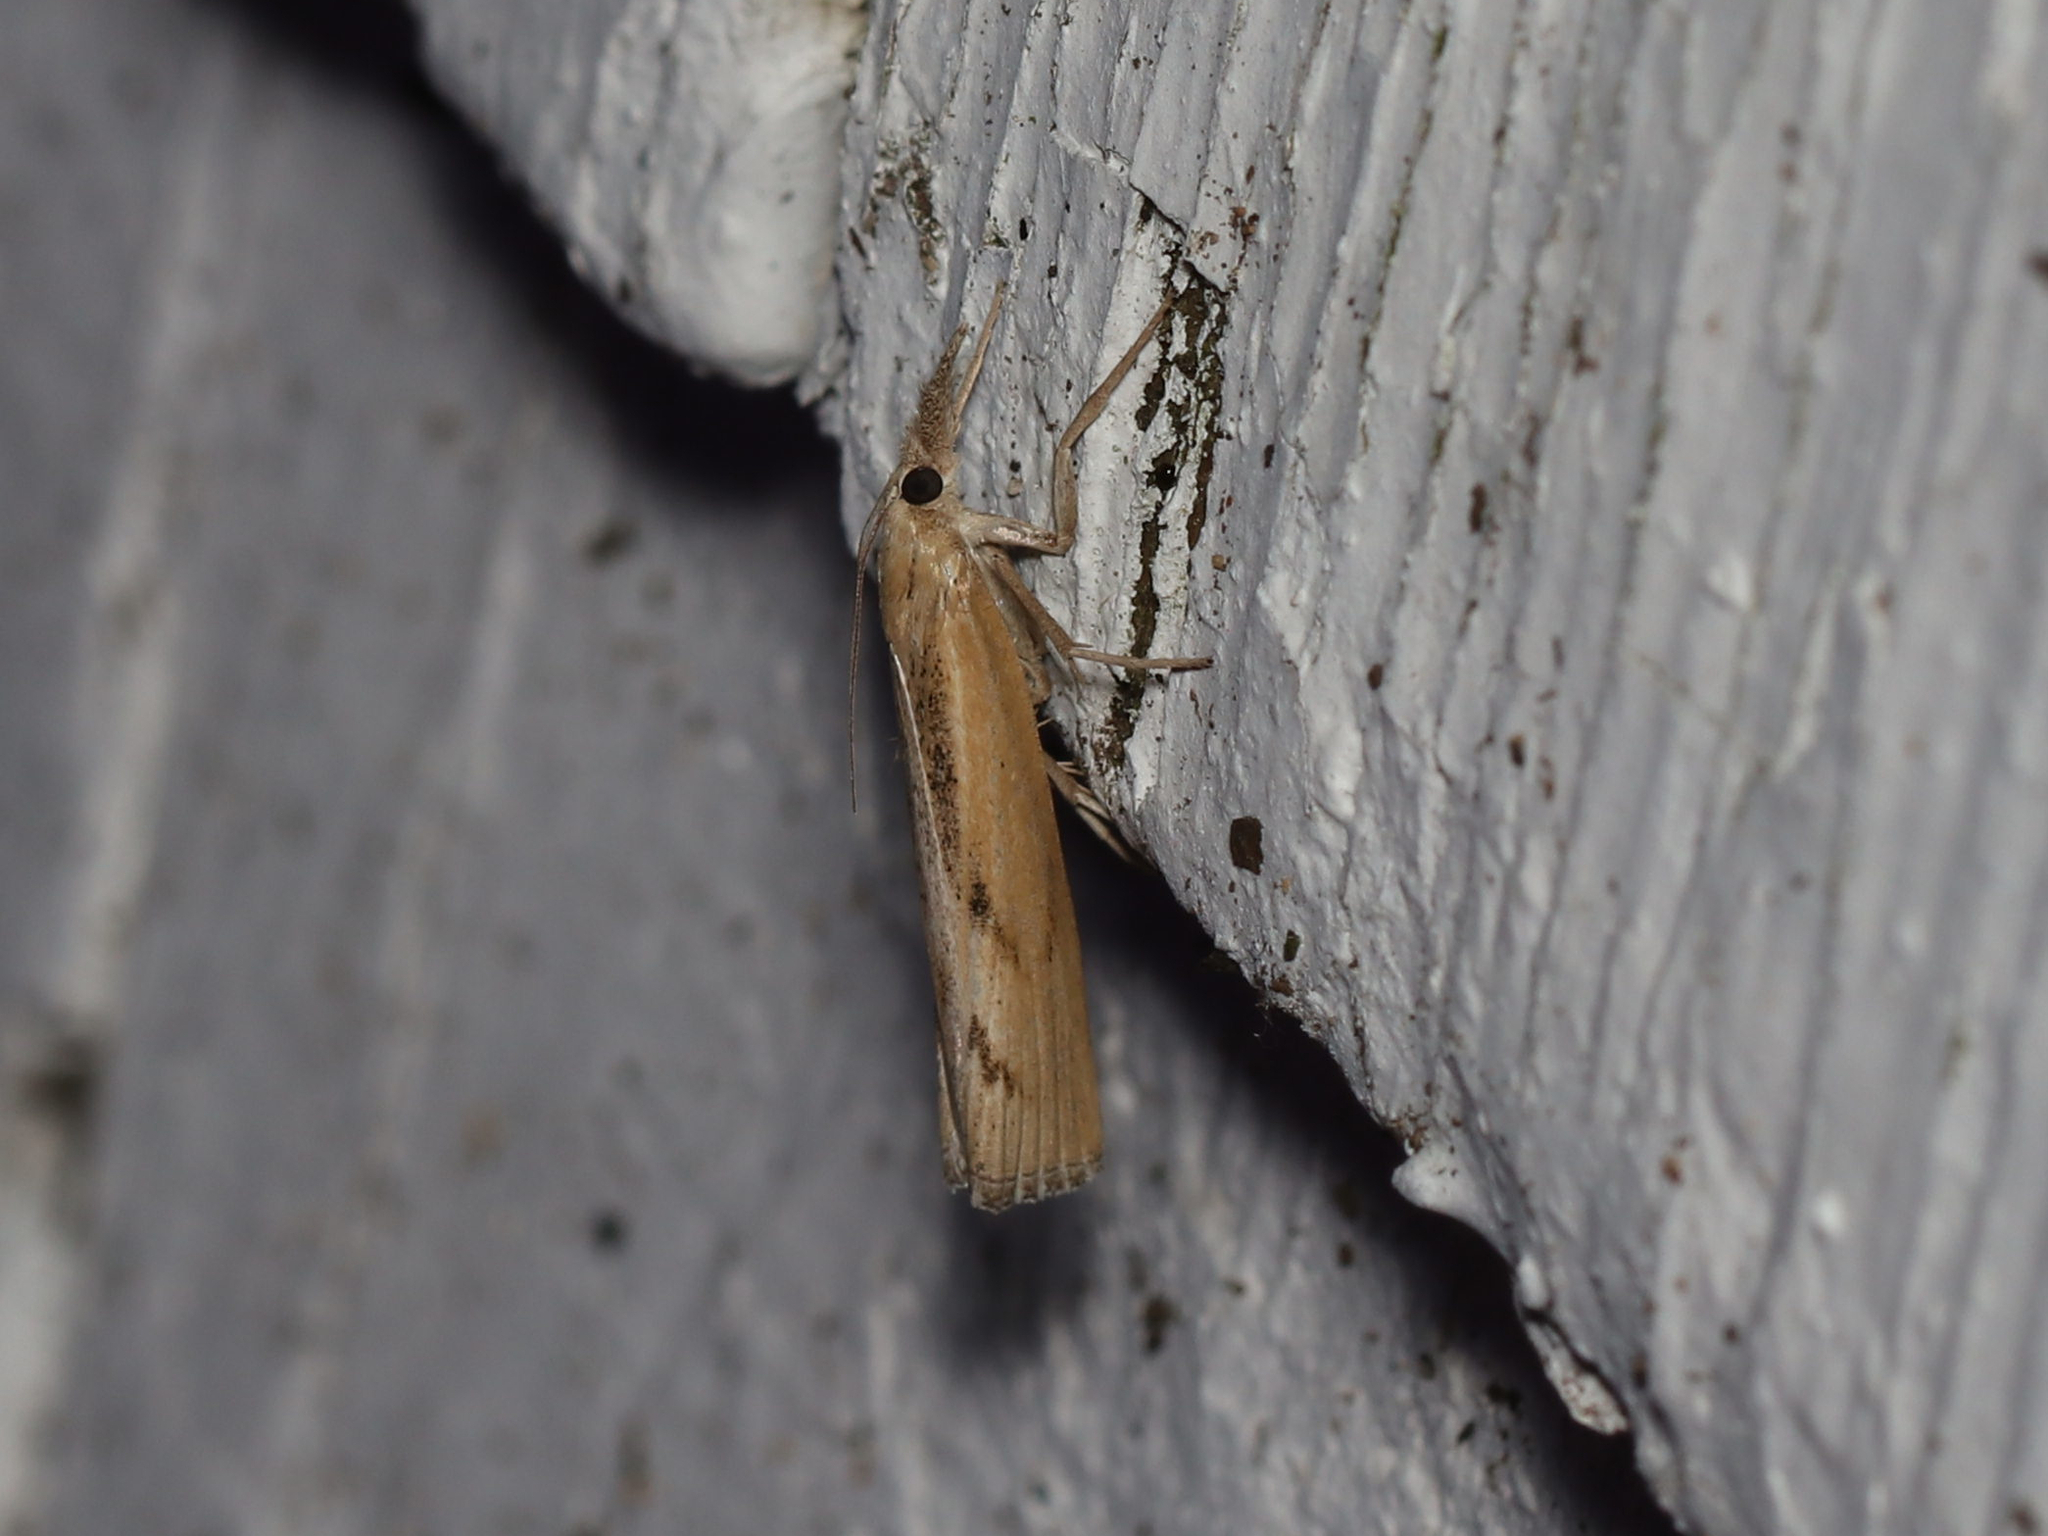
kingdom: Animalia
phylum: Arthropoda
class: Insecta
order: Lepidoptera
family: Crambidae
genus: Pediasia
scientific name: Pediasia trisecta
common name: Sod webworm moth
